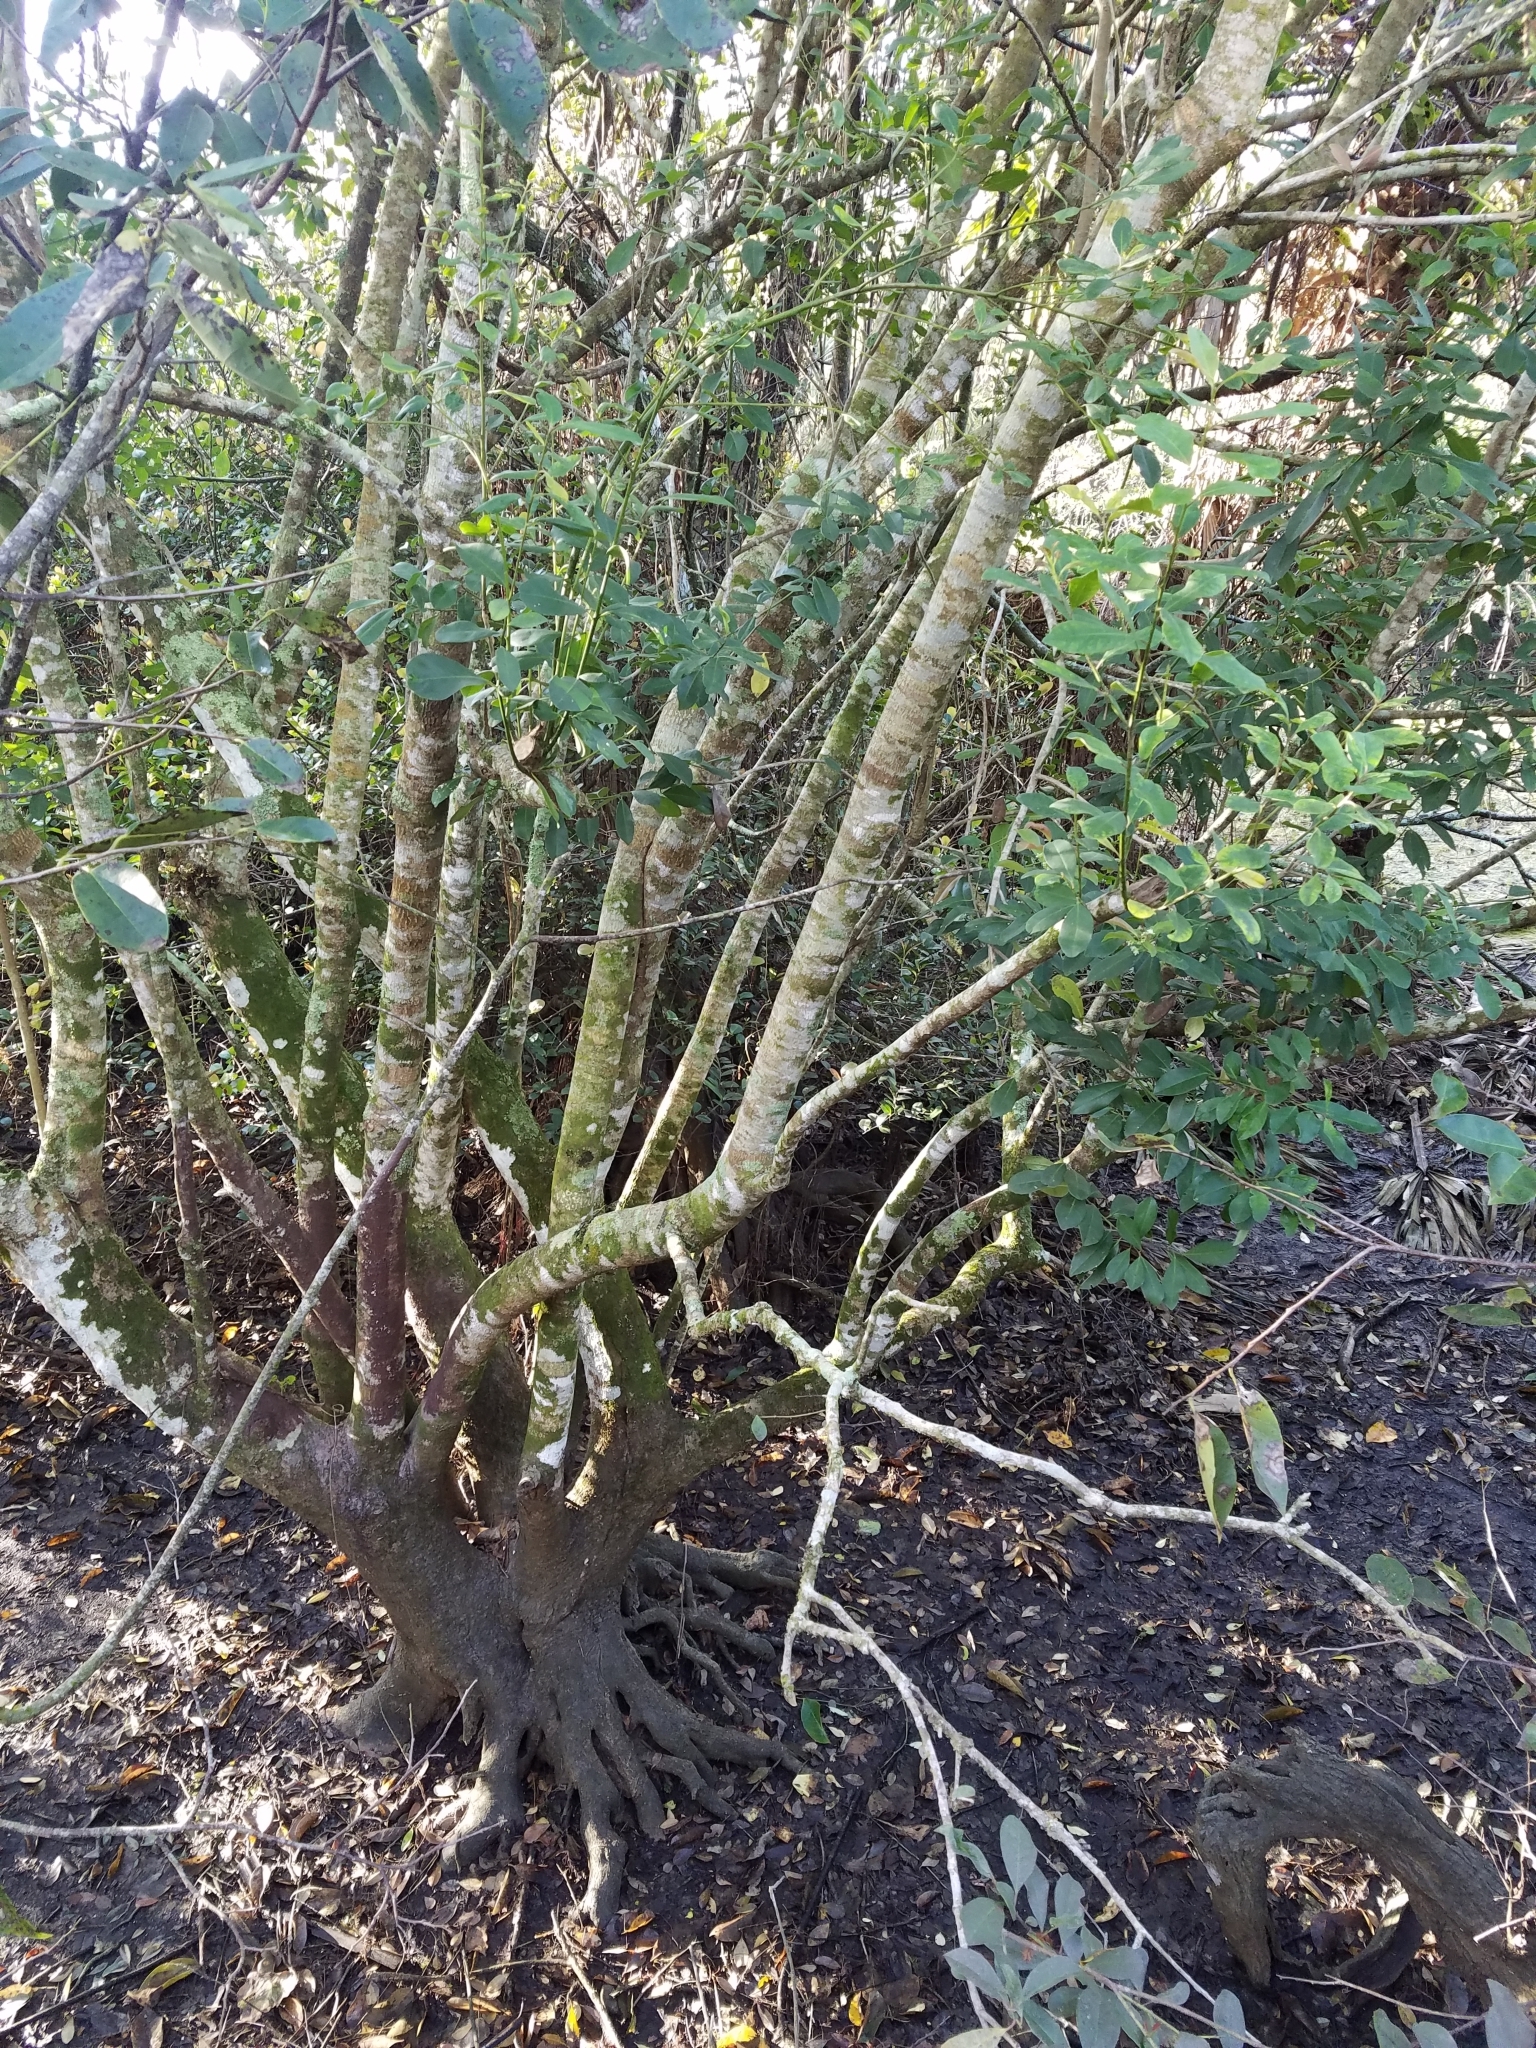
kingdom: Plantae
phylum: Tracheophyta
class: Magnoliopsida
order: Aquifoliales
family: Aquifoliaceae
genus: Ilex
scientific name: Ilex cassine
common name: Dahoon
